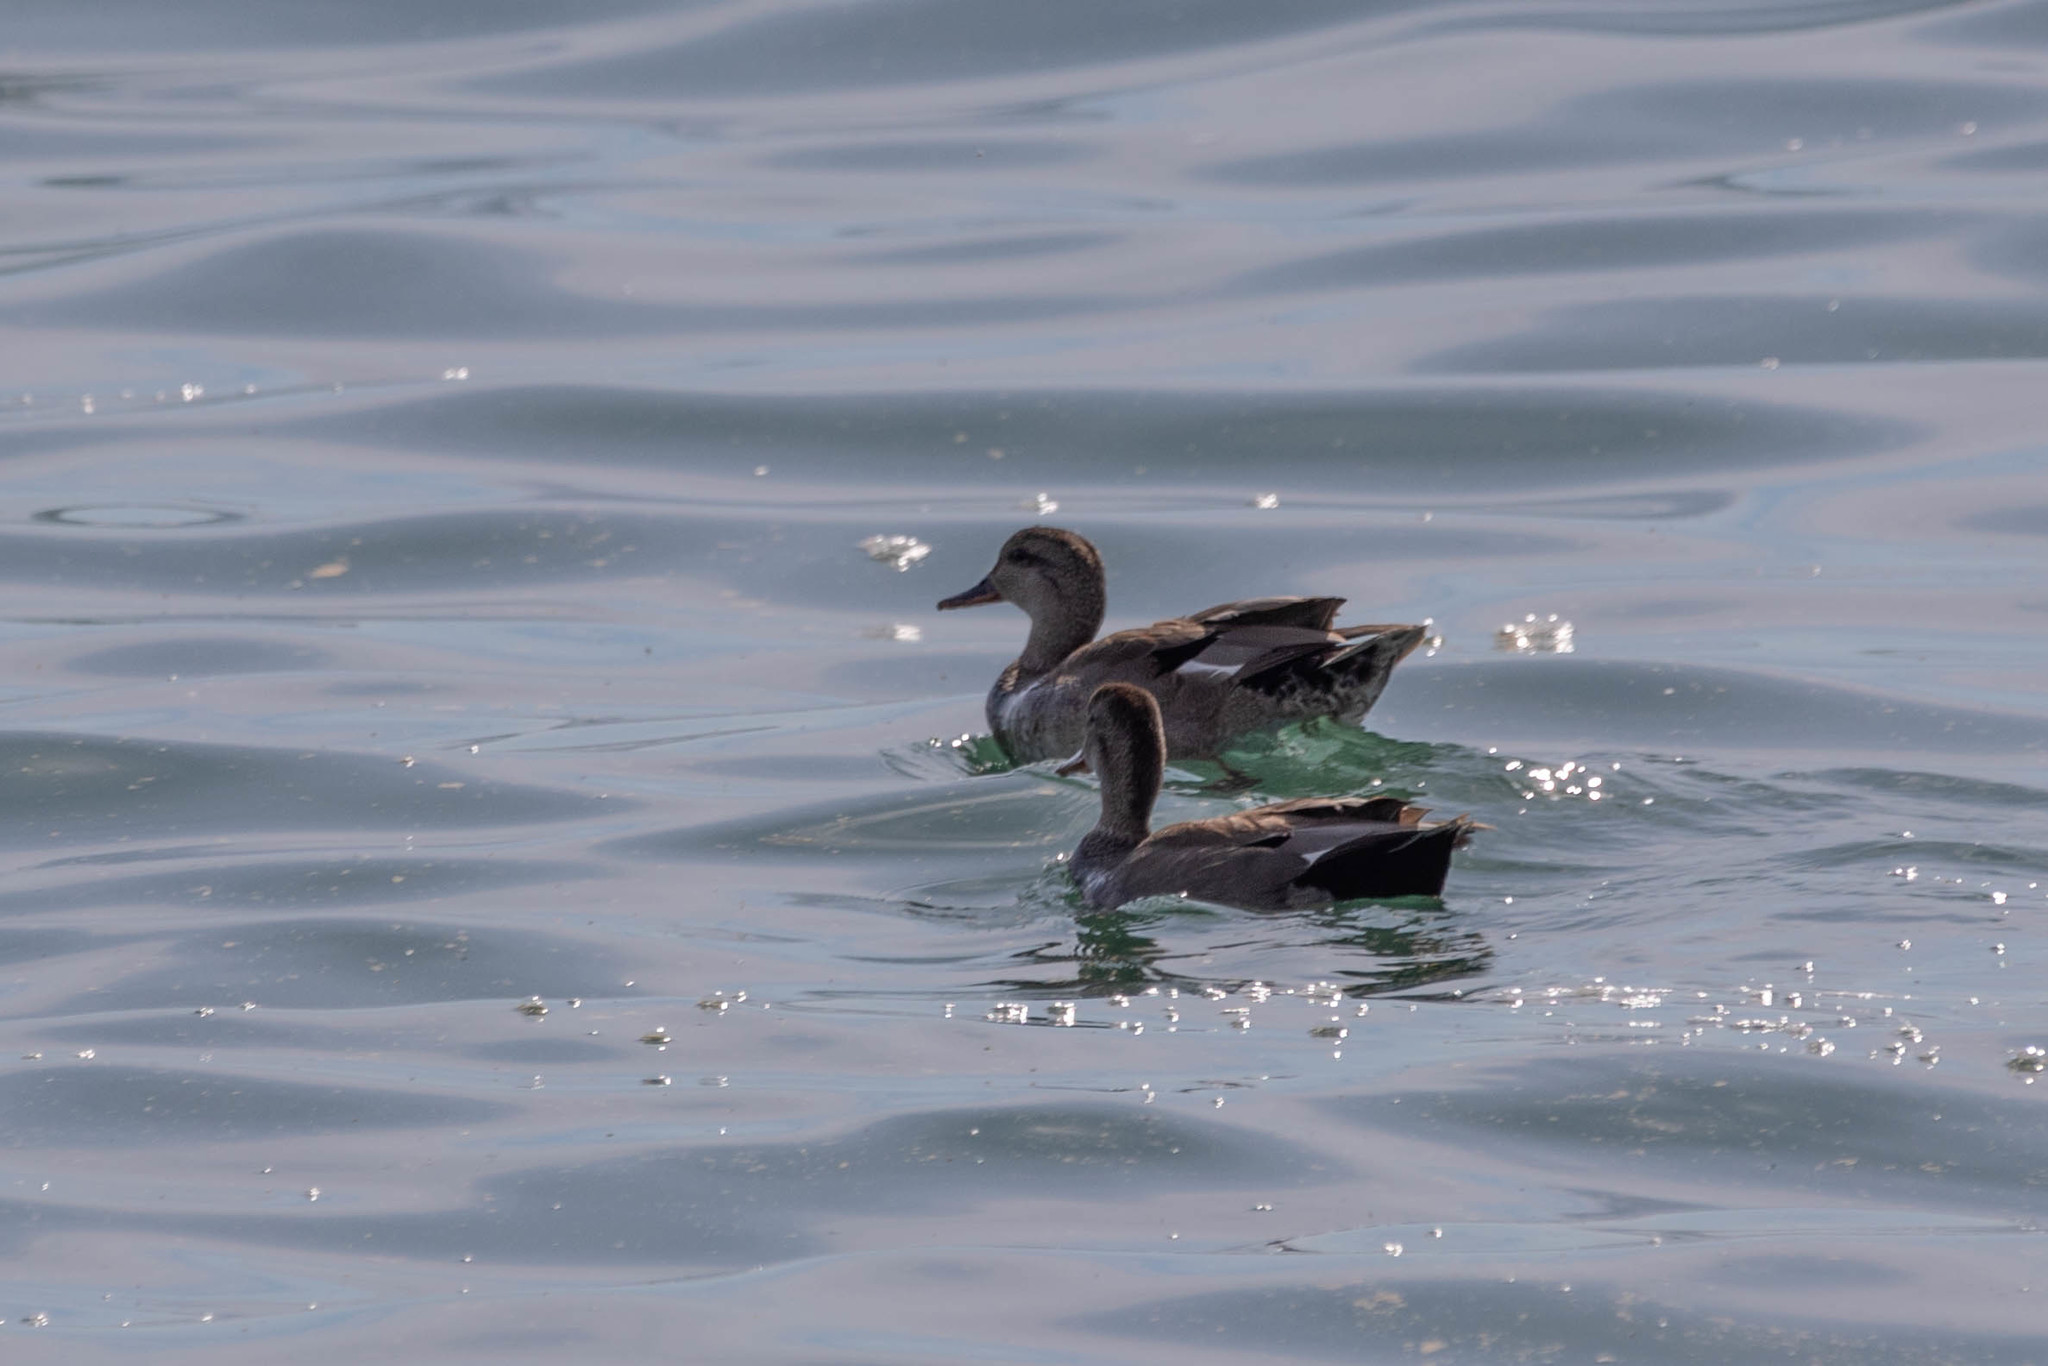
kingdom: Animalia
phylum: Chordata
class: Aves
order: Anseriformes
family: Anatidae
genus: Mareca
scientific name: Mareca strepera
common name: Gadwall
